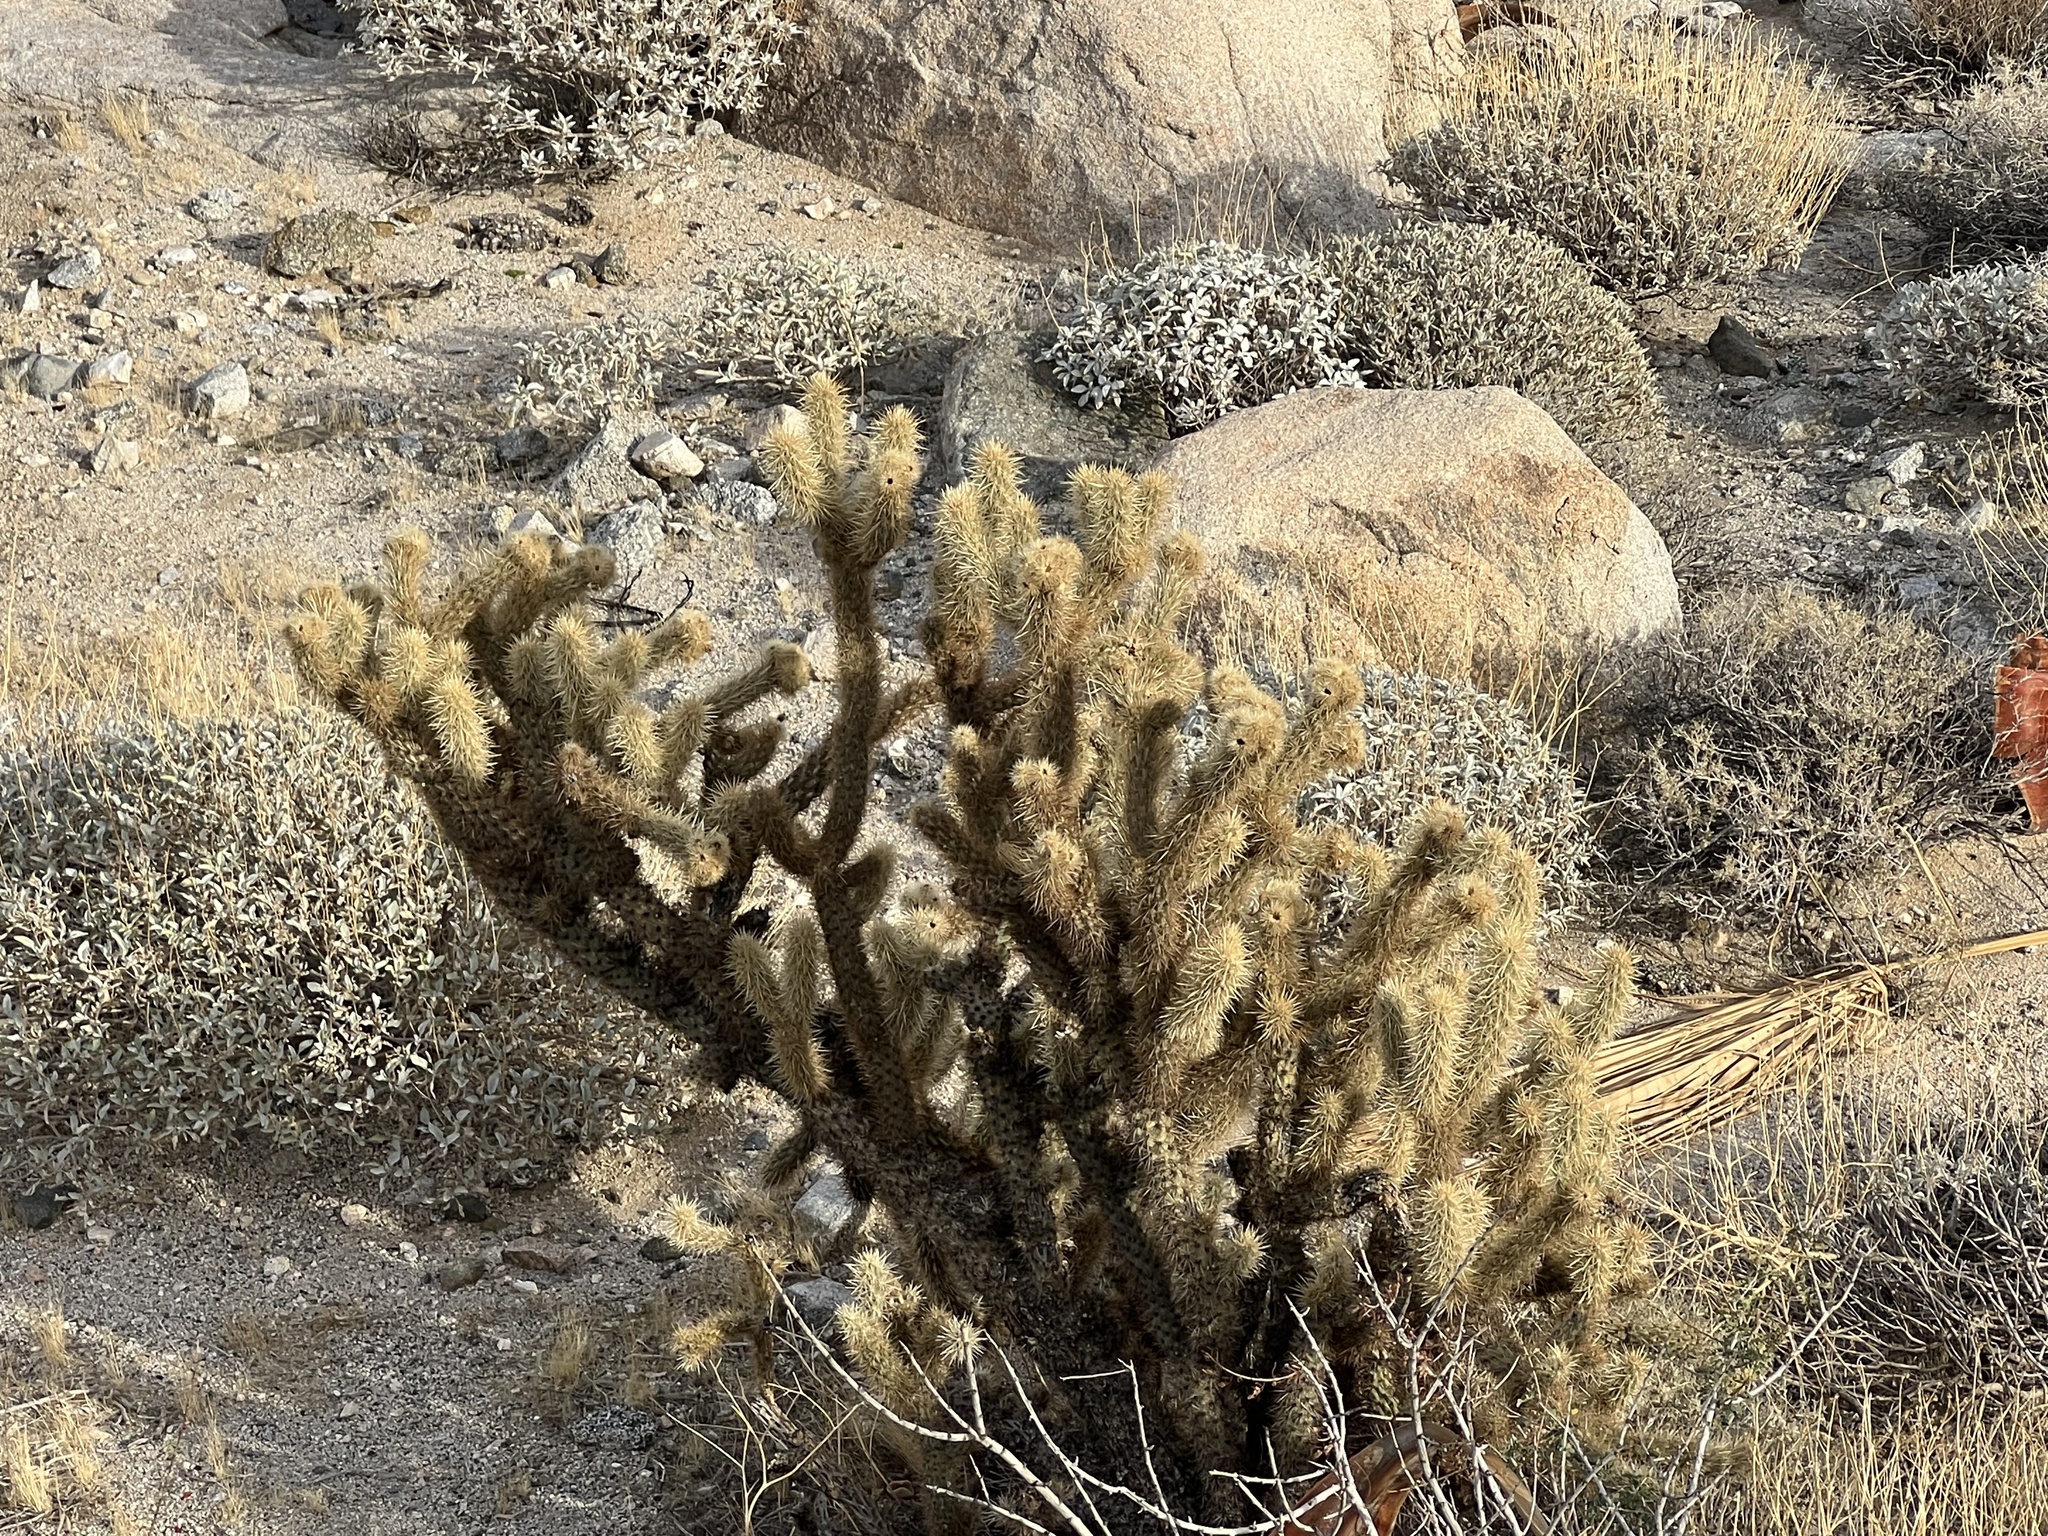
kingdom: Plantae
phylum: Tracheophyta
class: Magnoliopsida
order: Caryophyllales
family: Cactaceae
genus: Cylindropuntia
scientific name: Cylindropuntia ganderi
